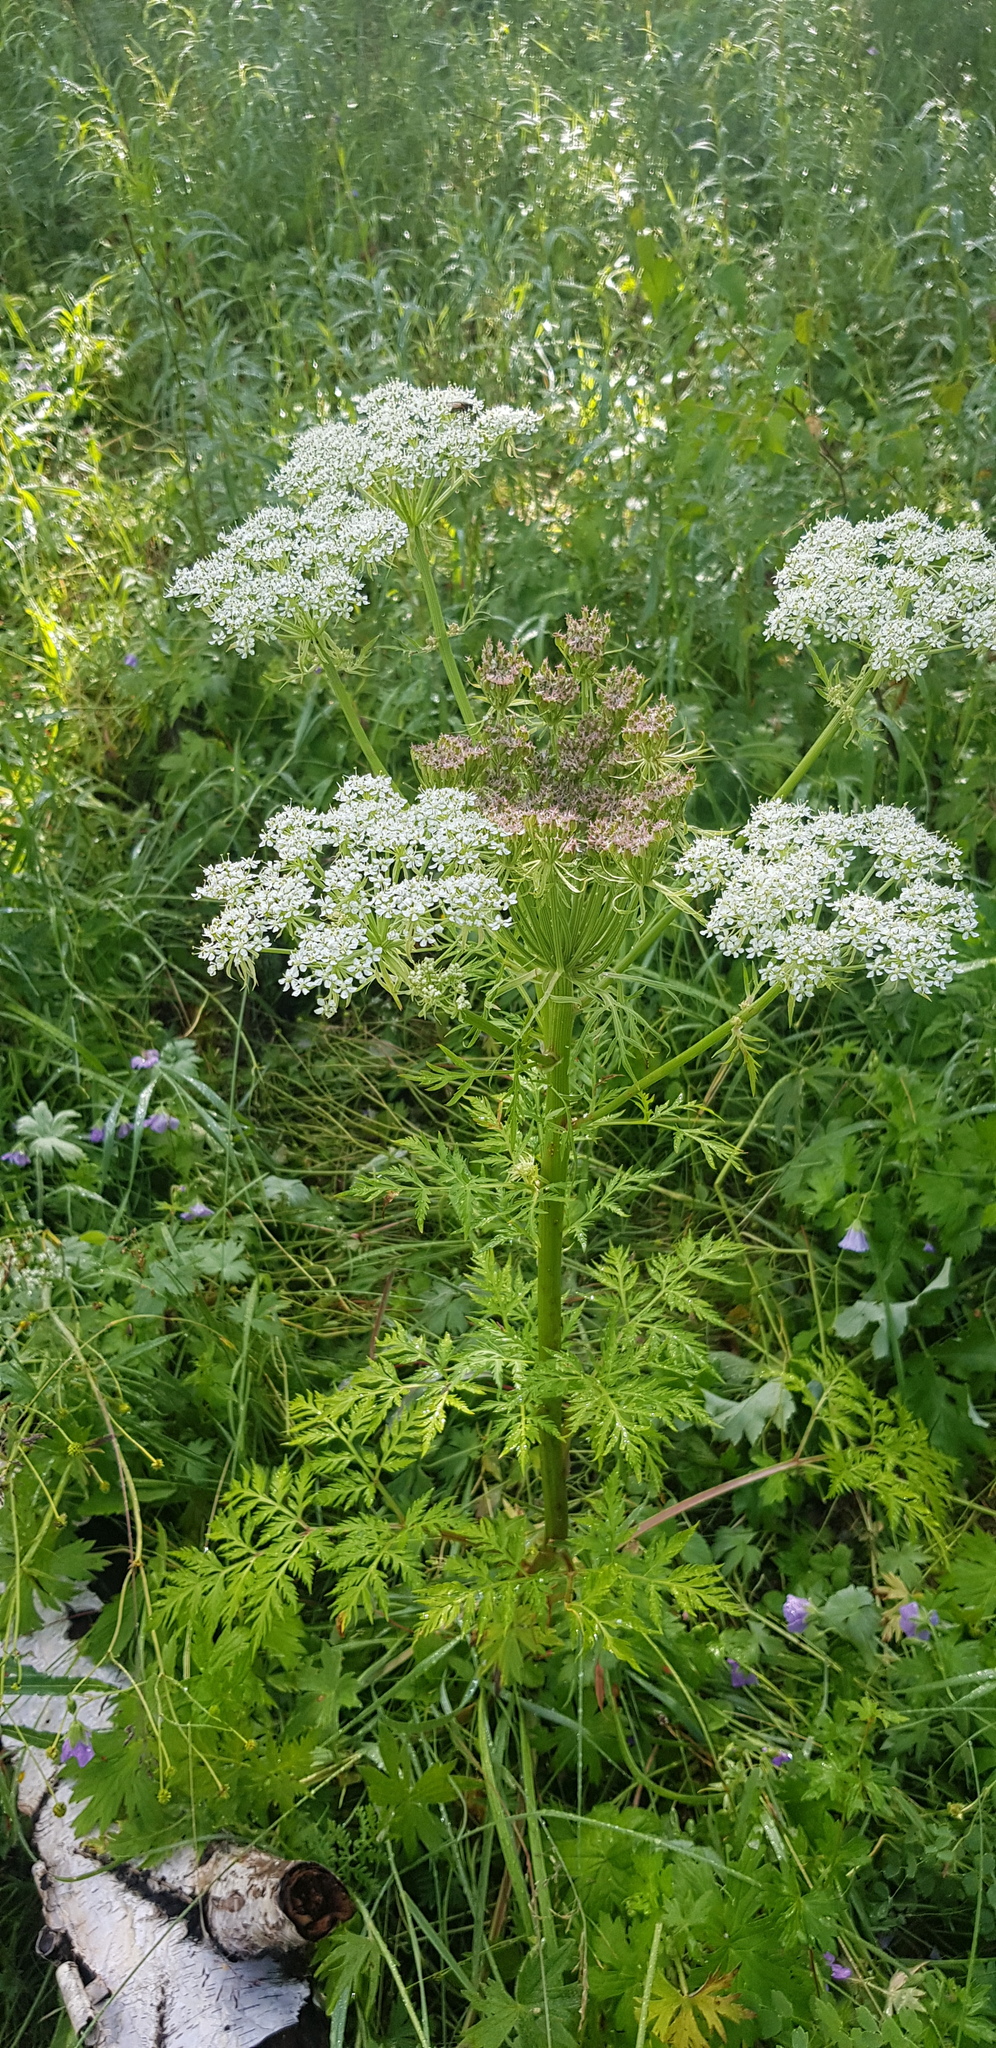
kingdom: Plantae
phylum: Tracheophyta
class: Magnoliopsida
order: Apiales
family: Apiaceae
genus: Pleurospermum
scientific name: Pleurospermum uralense
